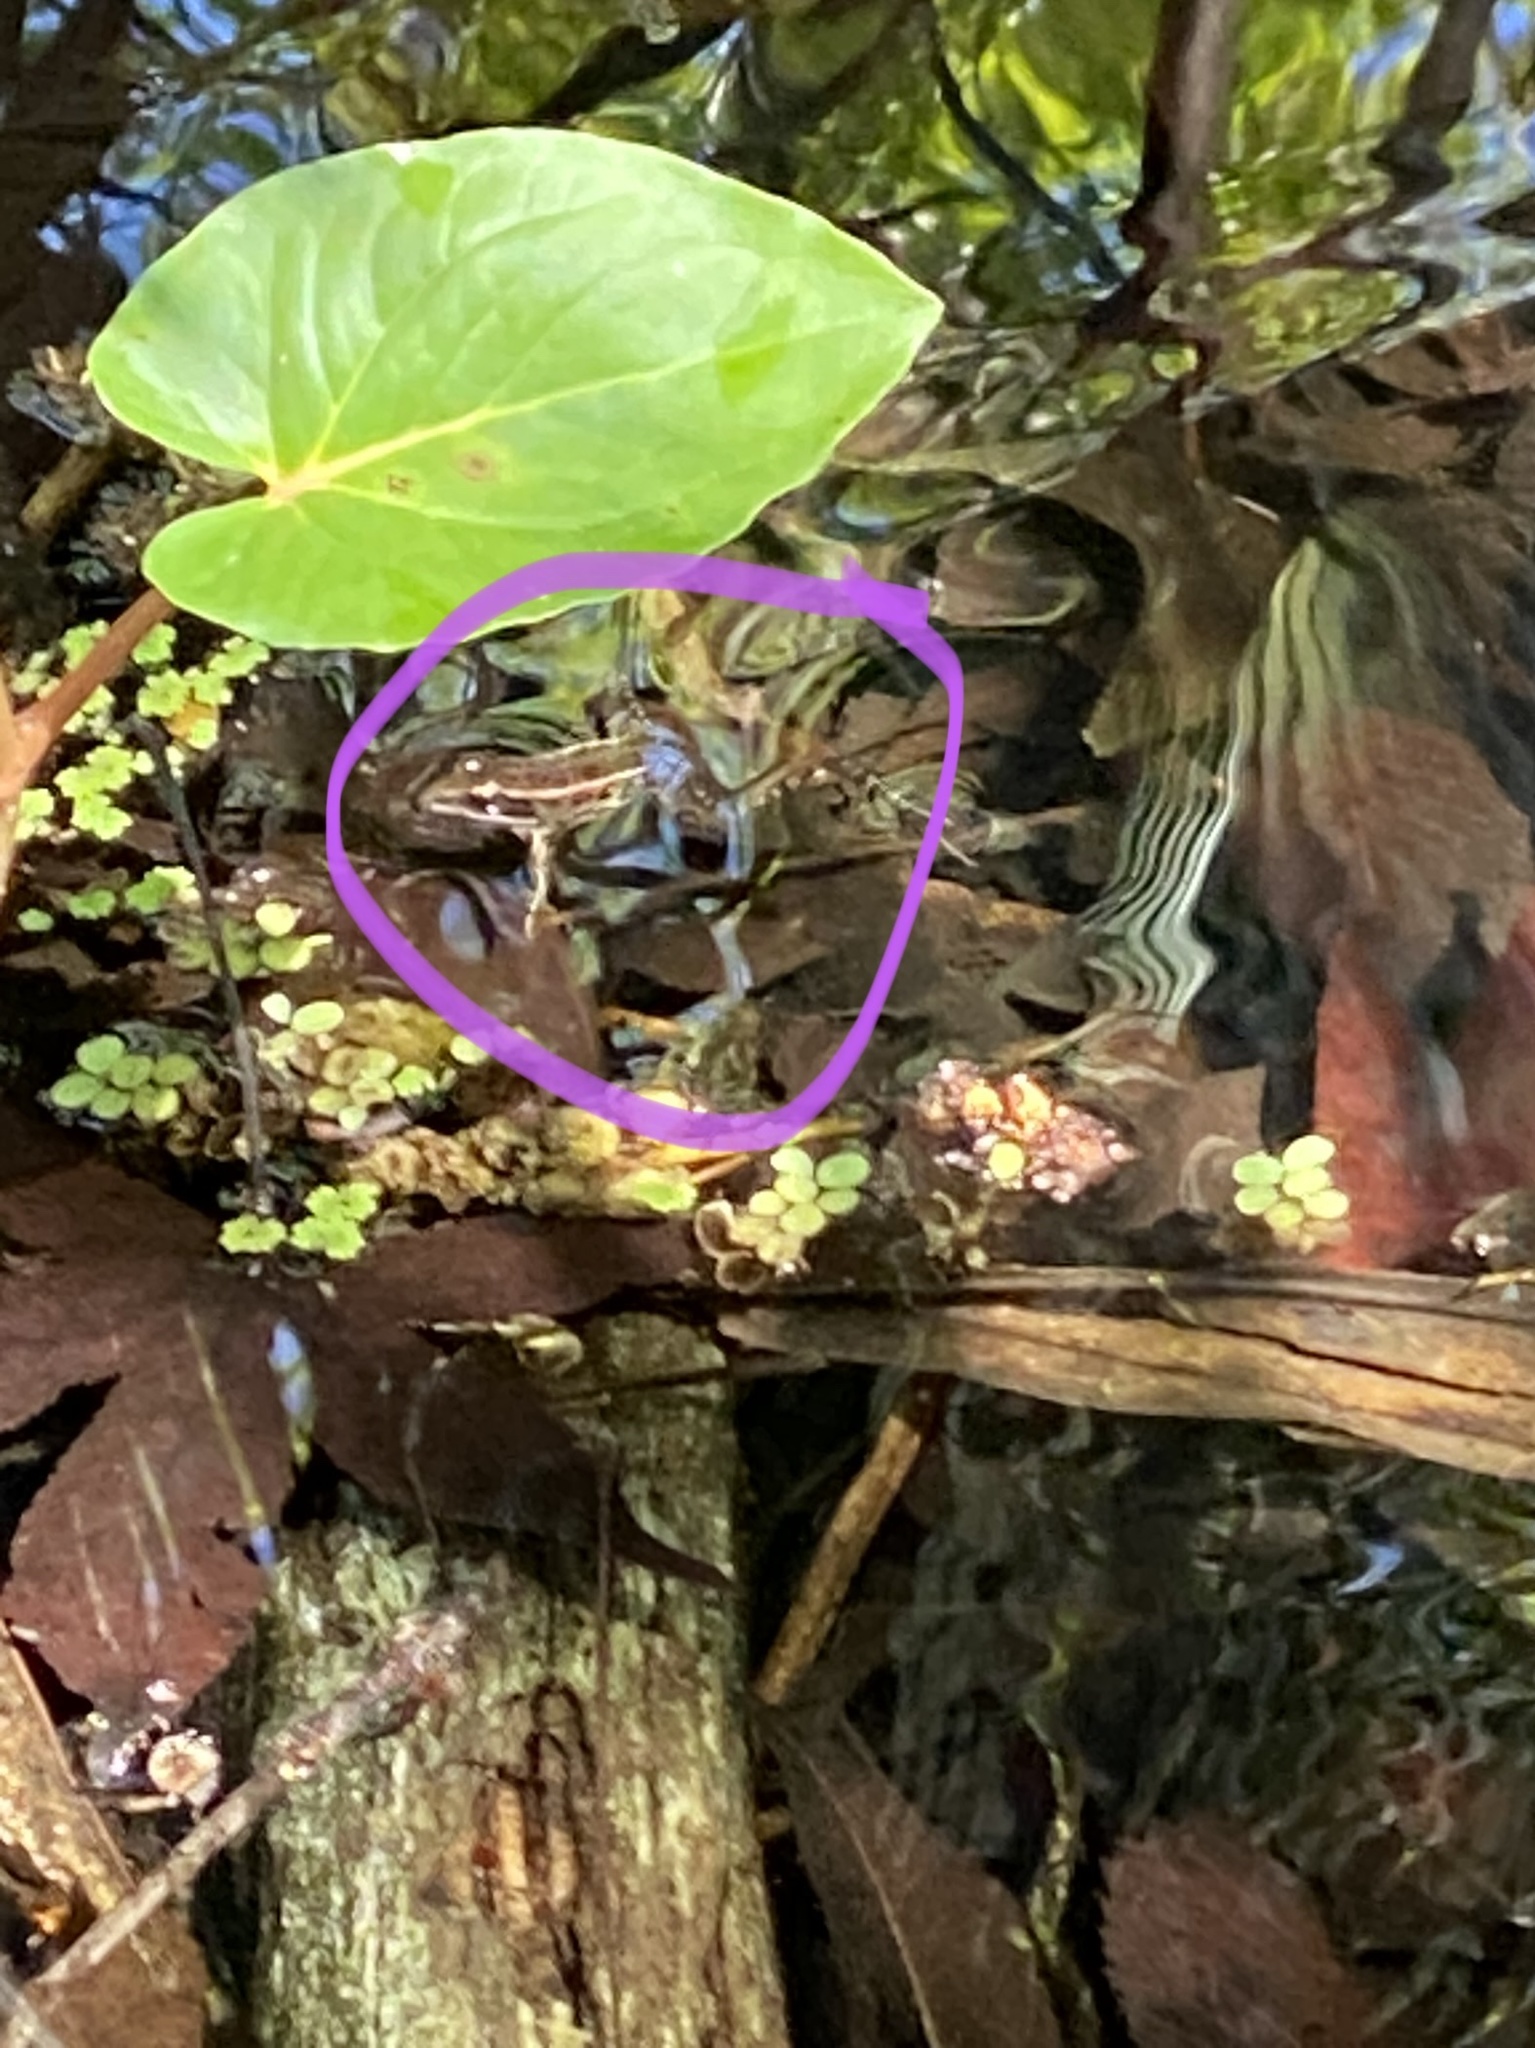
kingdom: Animalia
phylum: Chordata
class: Amphibia
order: Anura
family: Ranidae
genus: Lithobates
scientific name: Lithobates sphenocephalus
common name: Southern leopard frog
